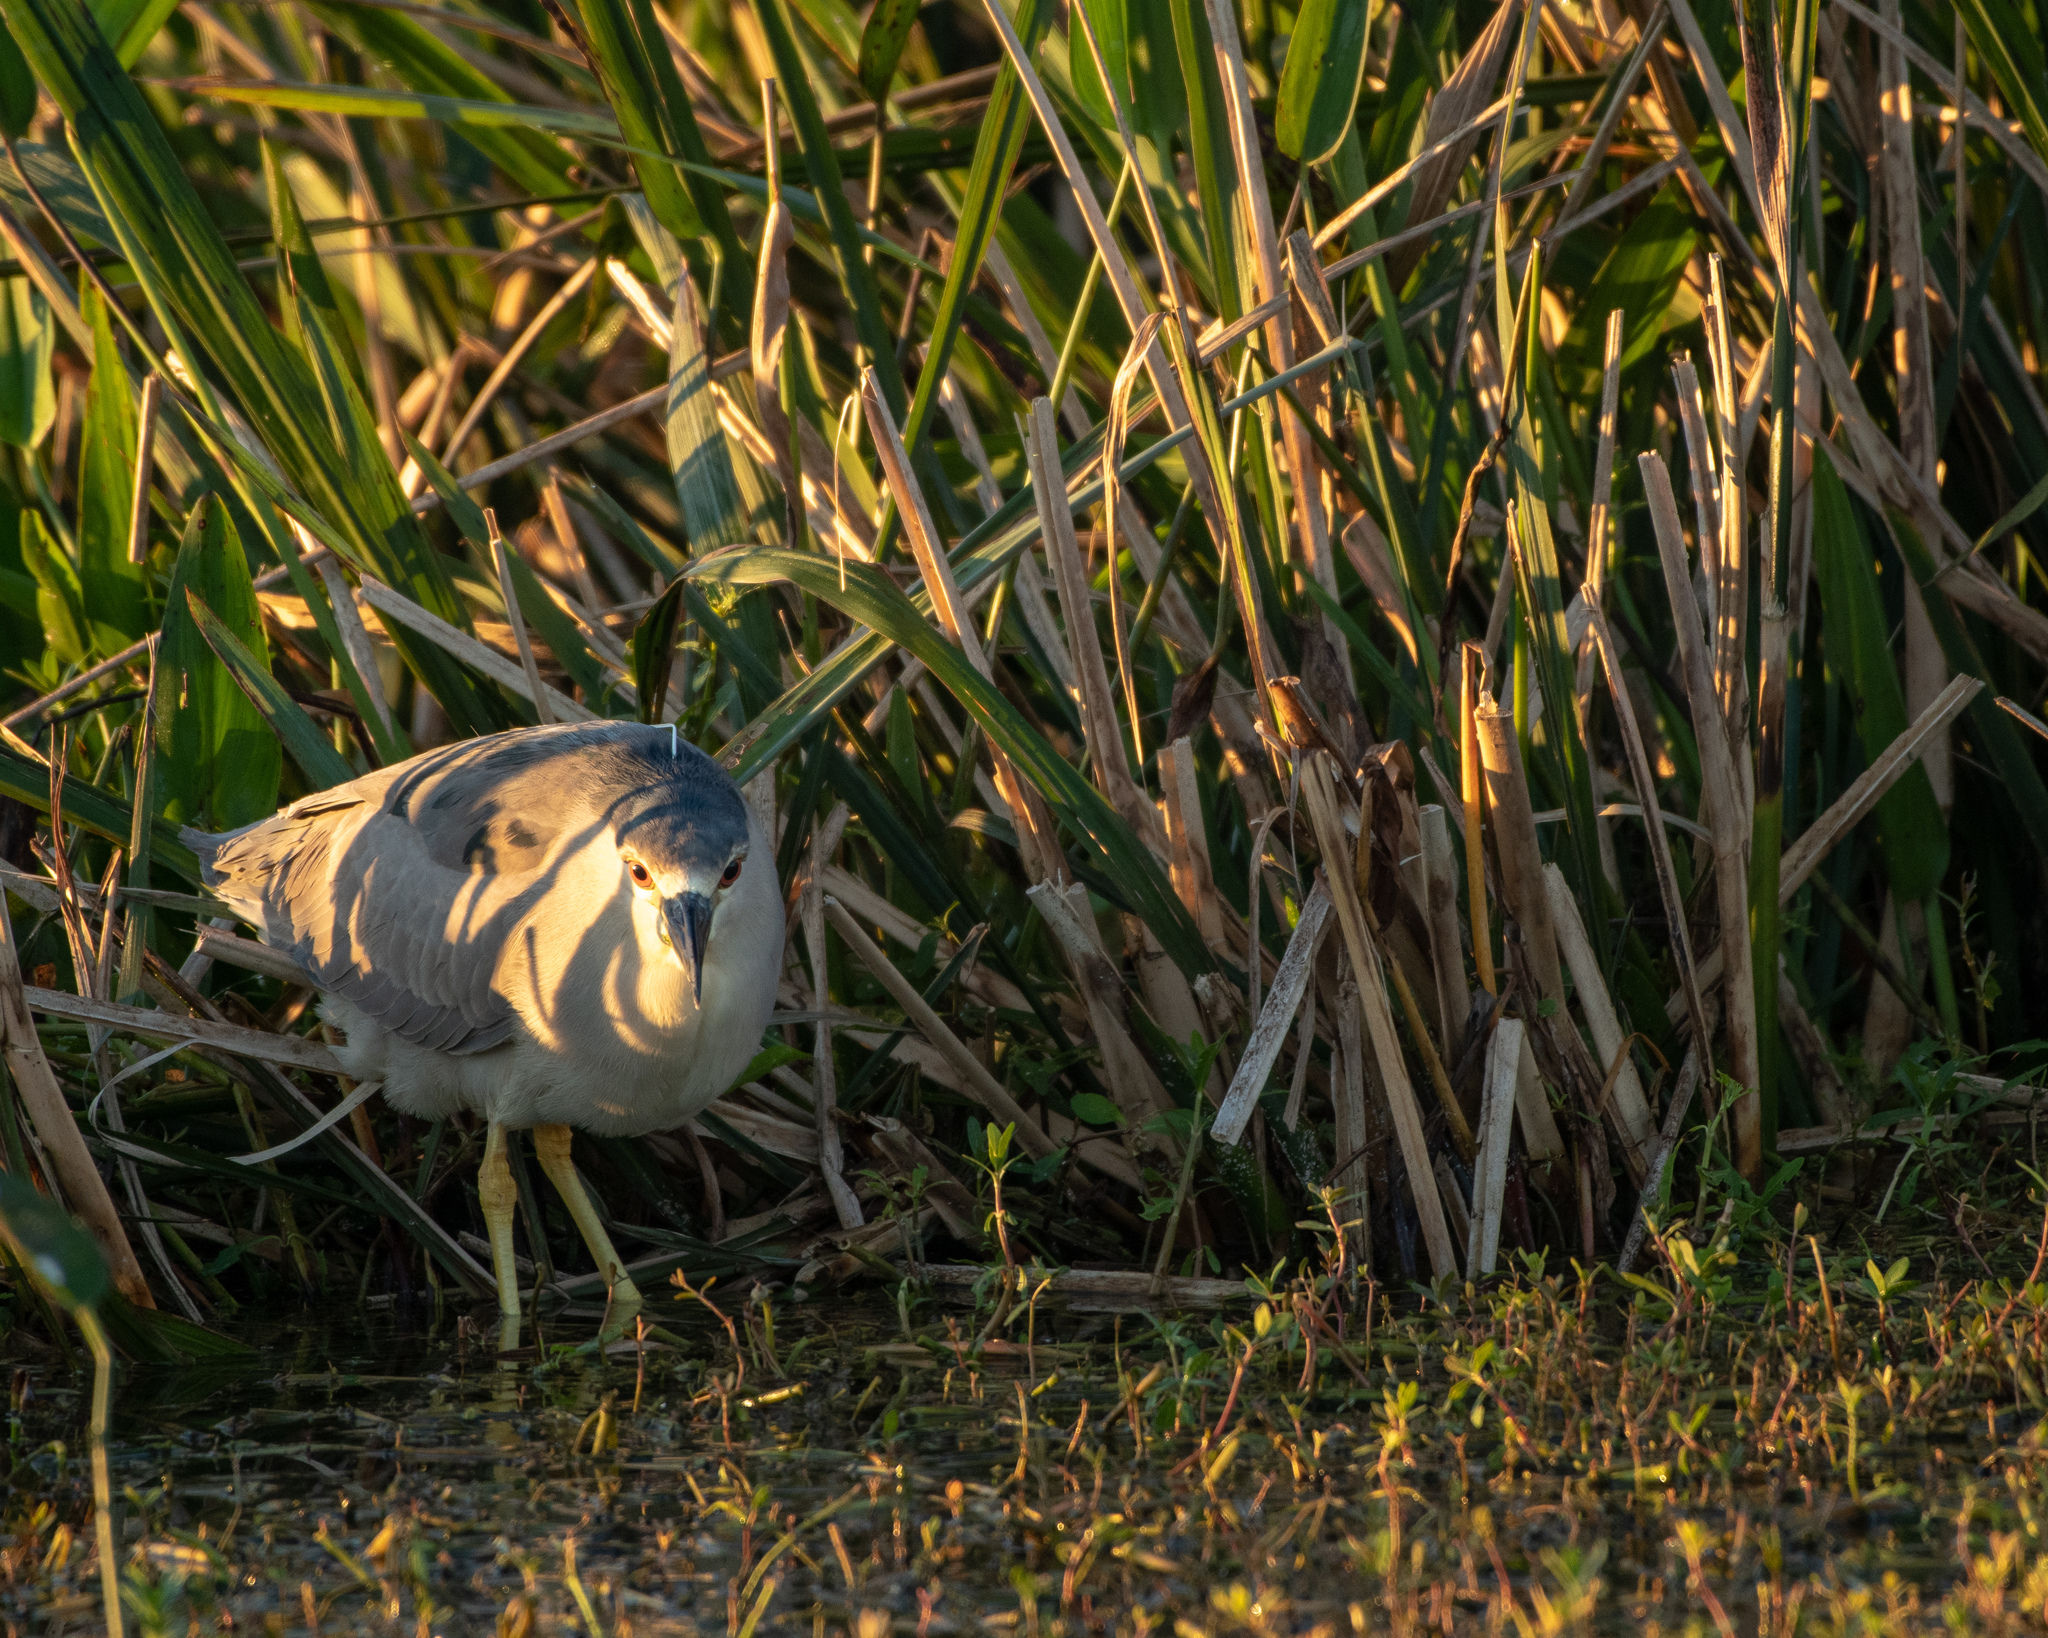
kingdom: Animalia
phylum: Chordata
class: Aves
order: Pelecaniformes
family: Ardeidae
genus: Nycticorax
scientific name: Nycticorax nycticorax
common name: Black-crowned night heron
